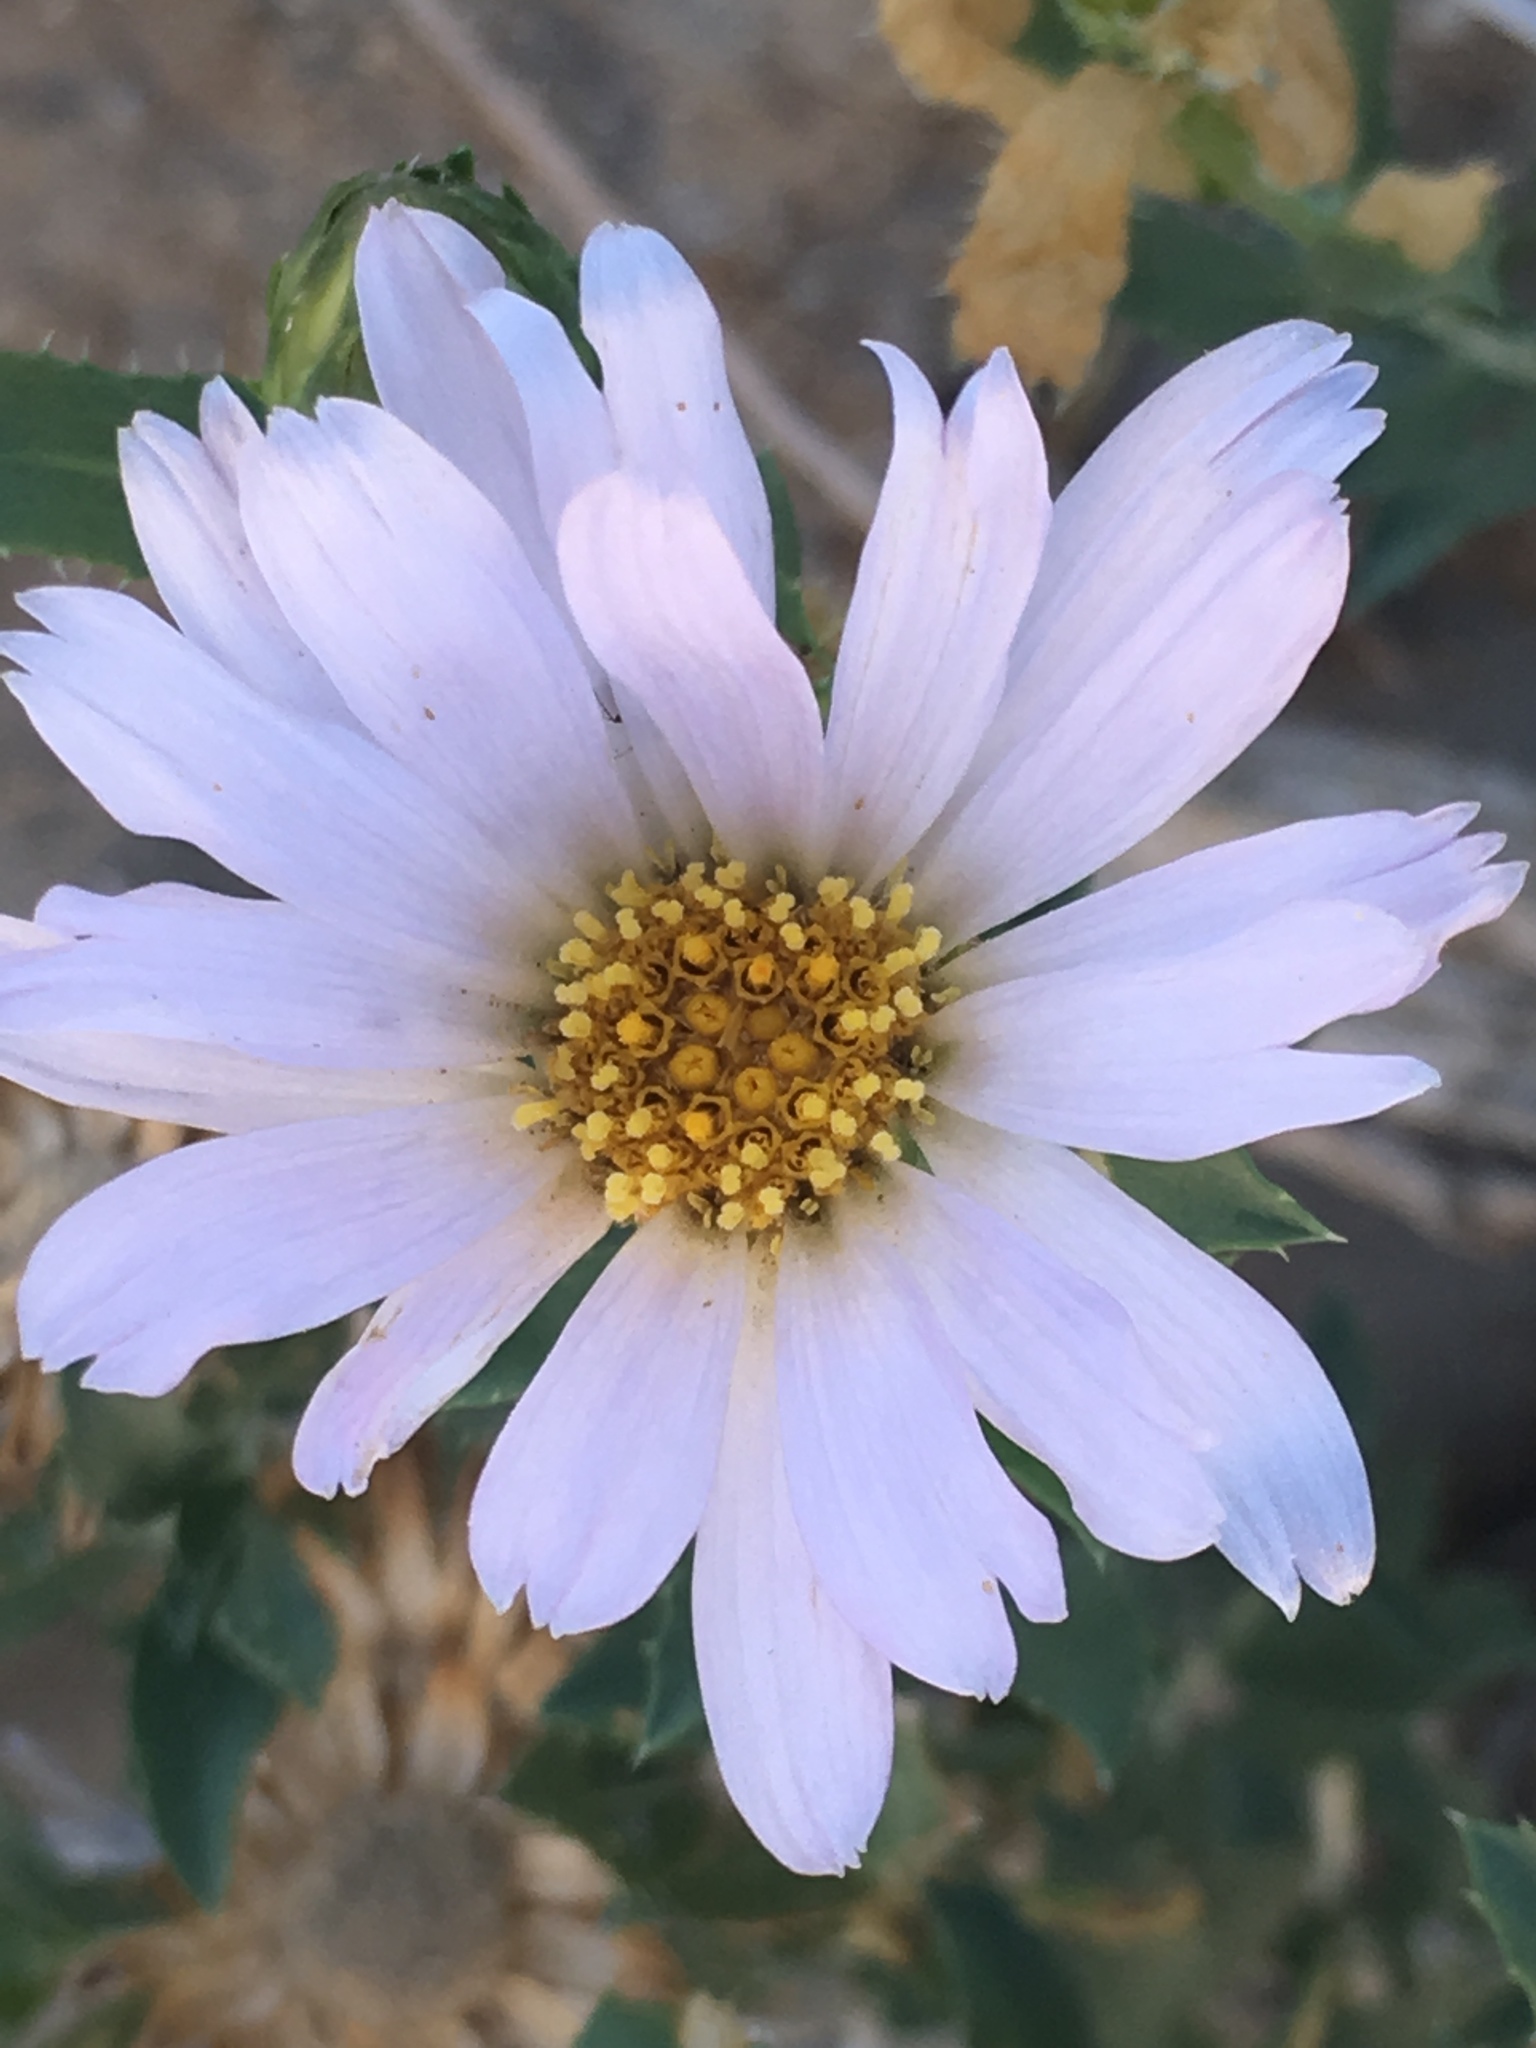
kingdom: Plantae
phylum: Tracheophyta
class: Magnoliopsida
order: Asterales
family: Asteraceae
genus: Xylorhiza
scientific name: Xylorhiza orcuttii
